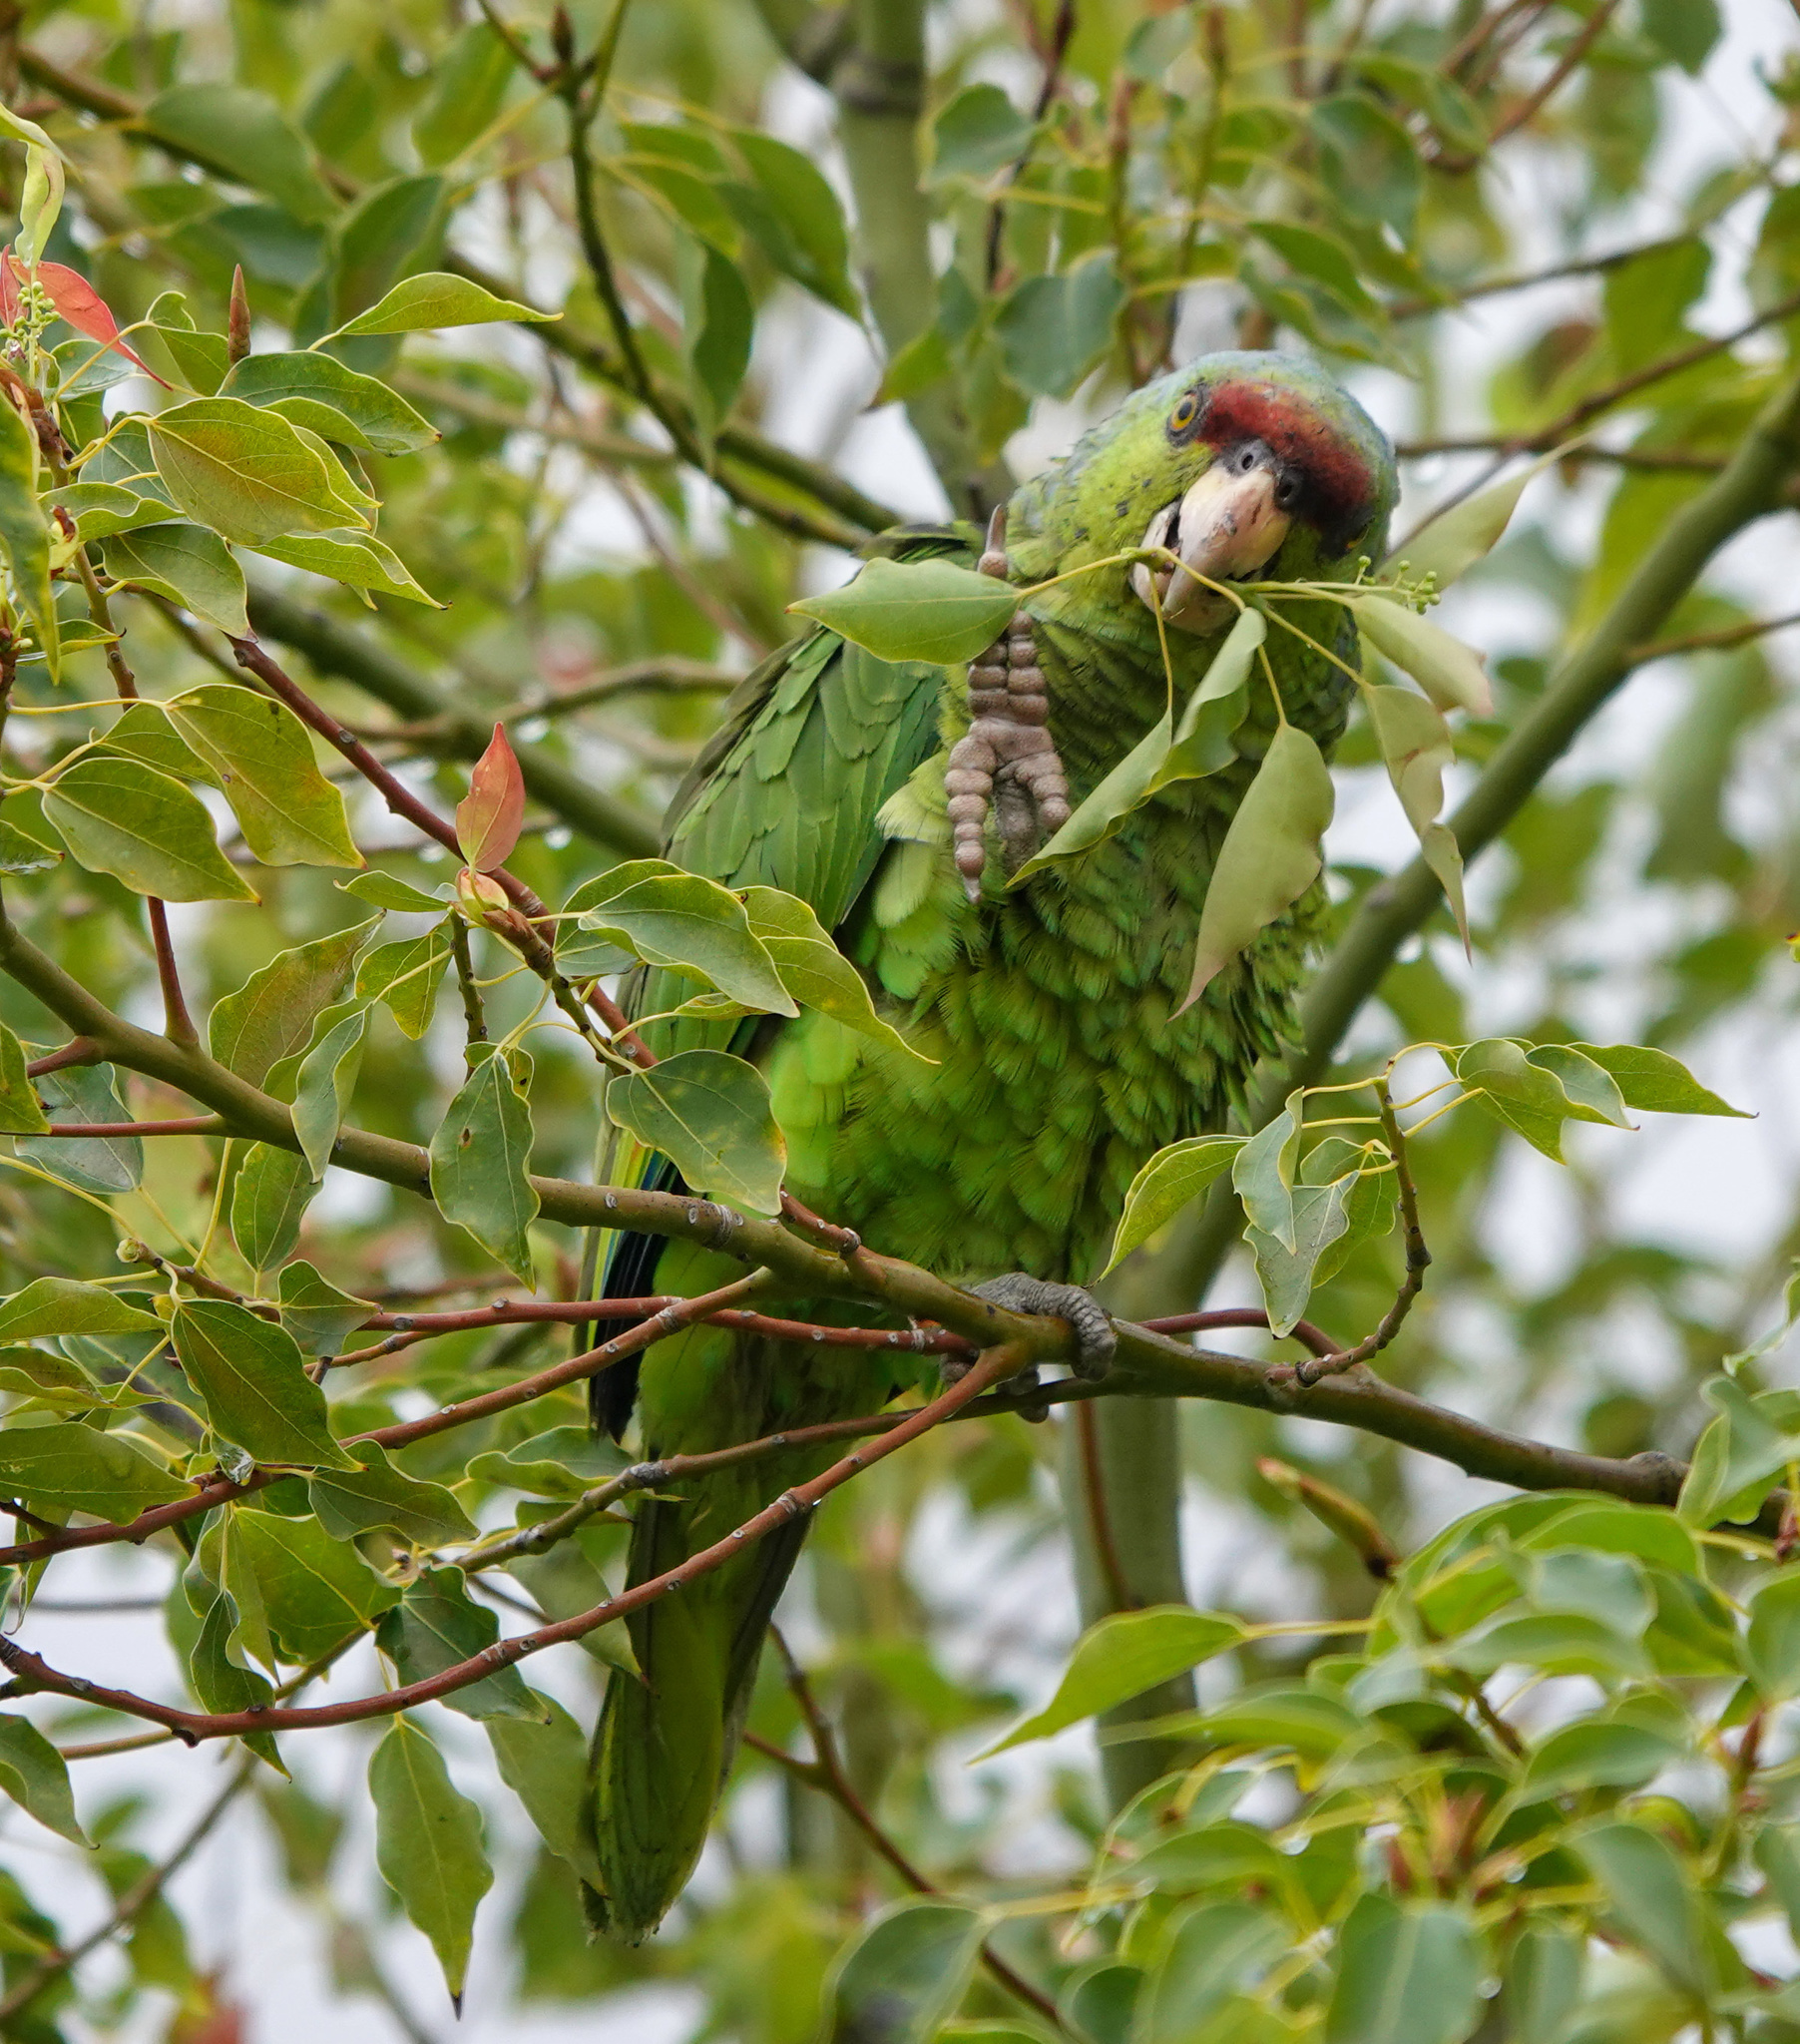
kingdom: Animalia
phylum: Chordata
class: Aves
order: Psittaciformes
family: Psittacidae
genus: Amazona
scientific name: Amazona finschi
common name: Lilac-crowned amazon
